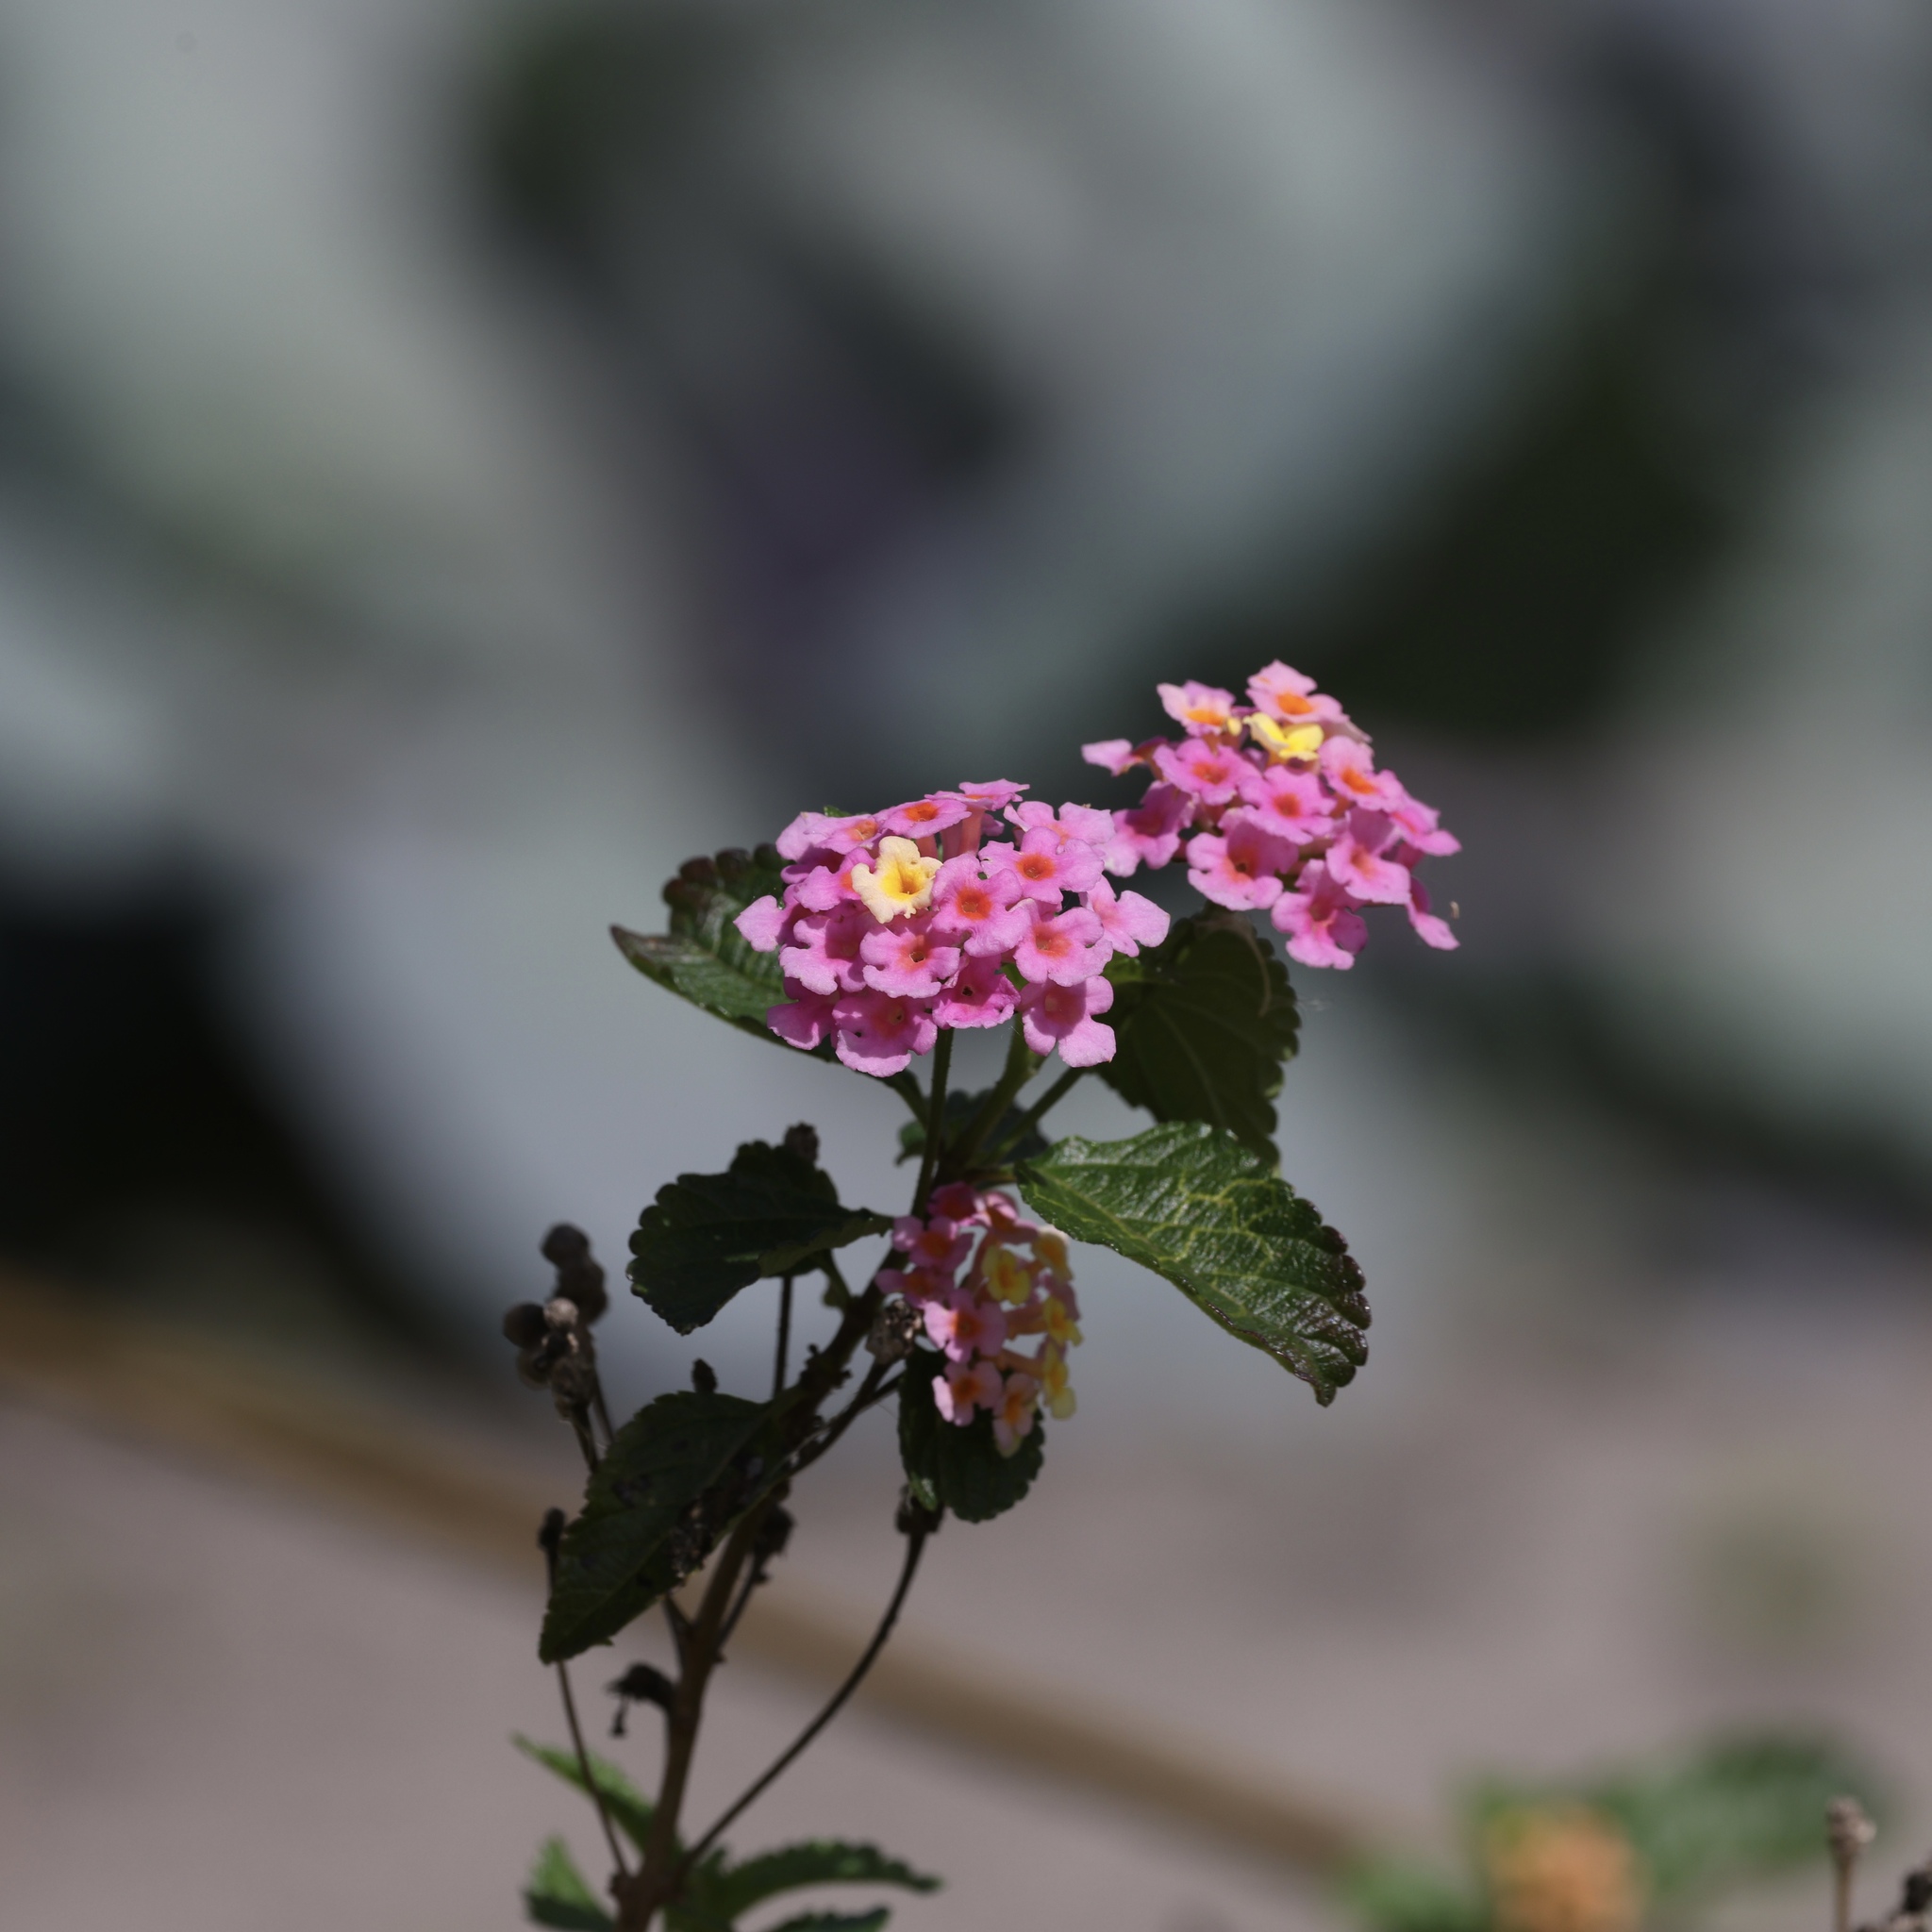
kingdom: Plantae
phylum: Tracheophyta
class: Magnoliopsida
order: Lamiales
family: Verbenaceae
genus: Lantana
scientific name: Lantana strigocamara
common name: Lantana
